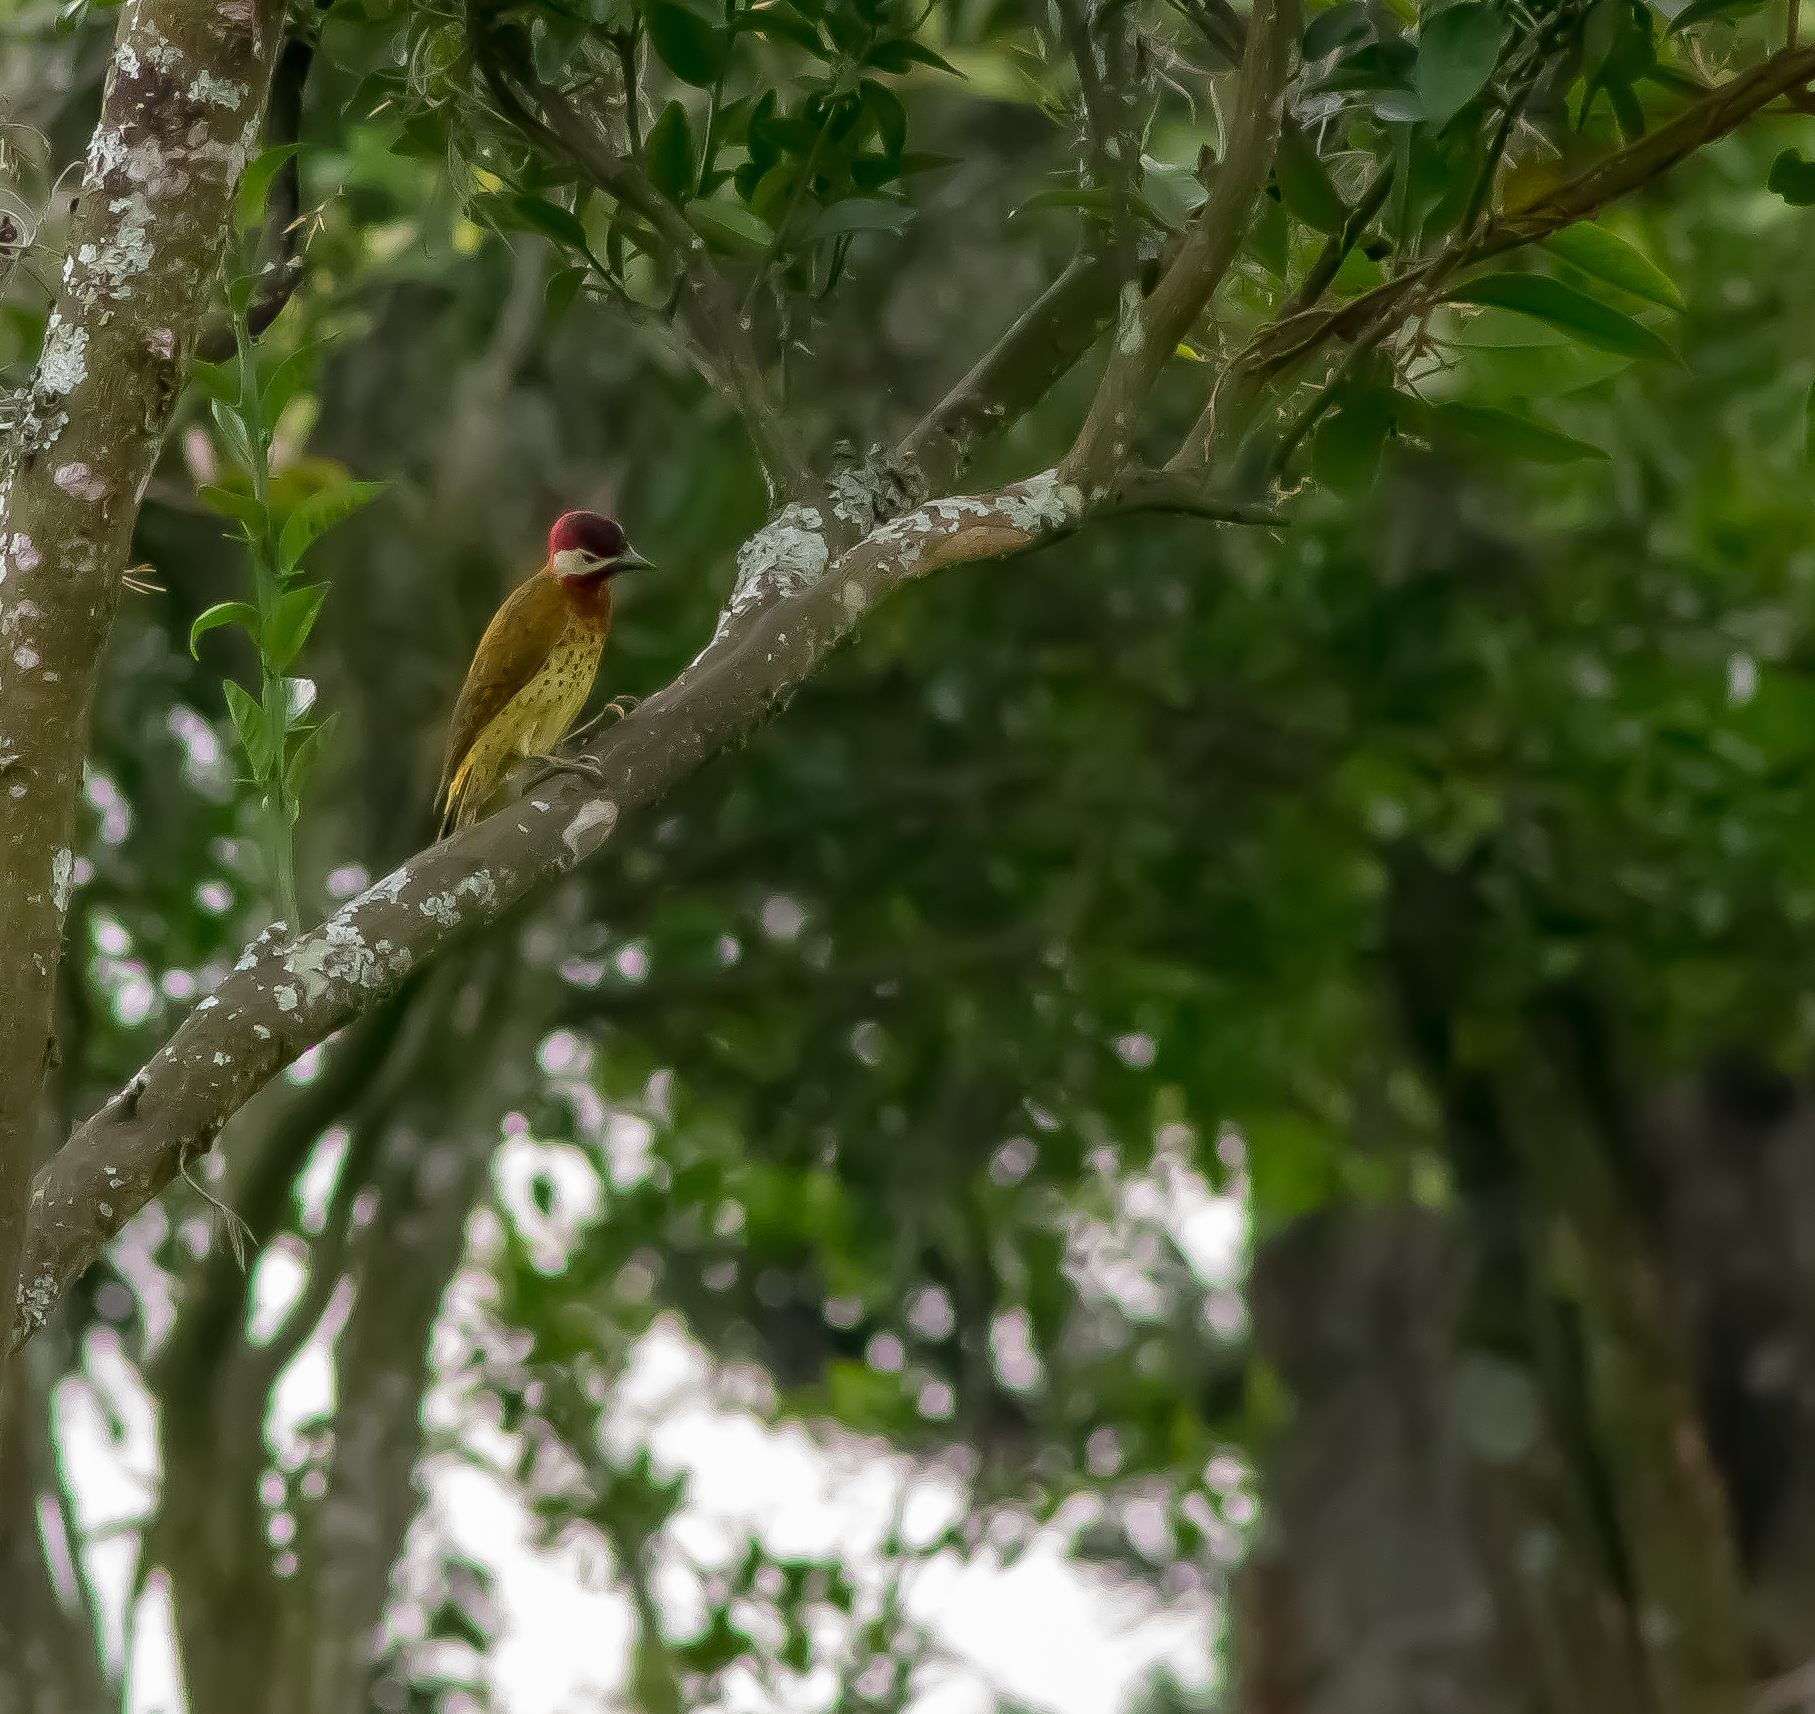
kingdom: Animalia
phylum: Chordata
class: Aves
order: Piciformes
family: Picidae
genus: Colaptes
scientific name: Colaptes punctigula
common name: Spot-breasted woodpecker
